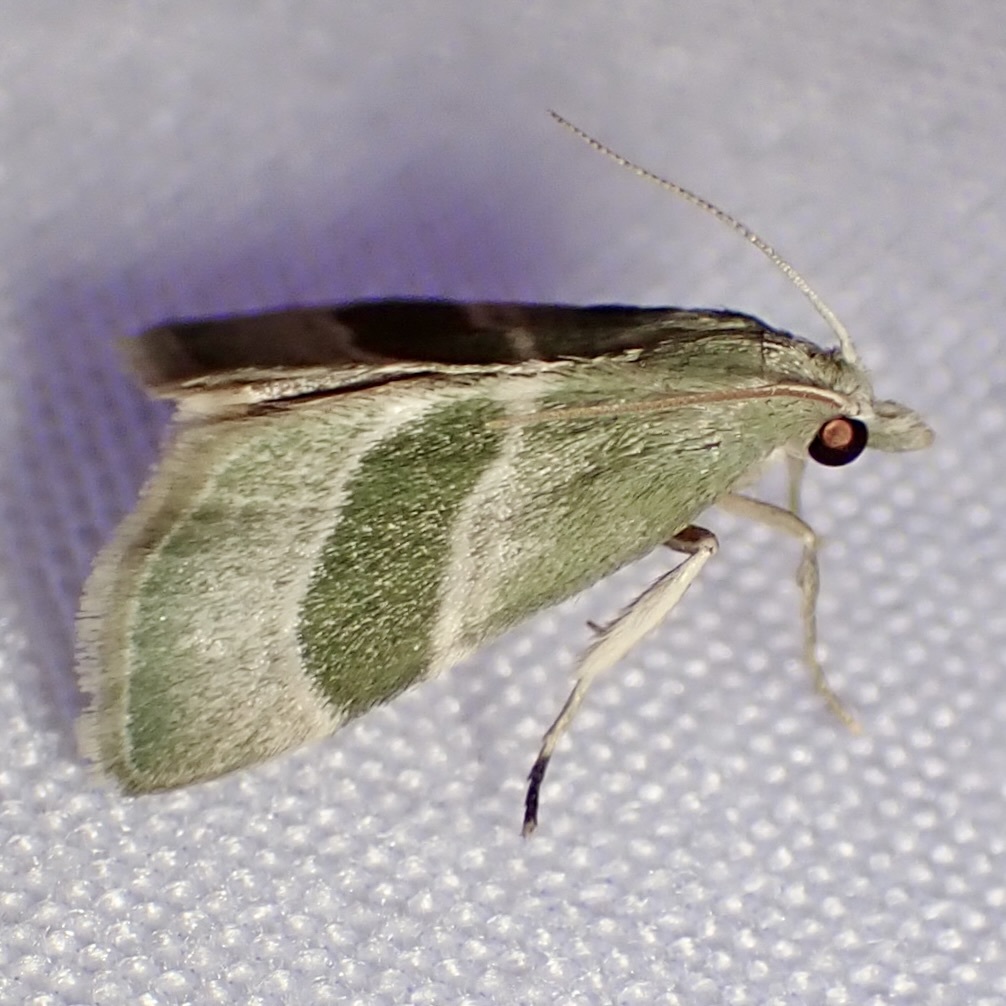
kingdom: Animalia
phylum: Arthropoda
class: Insecta
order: Lepidoptera
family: Pyralidae
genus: Anemosella
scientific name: Anemosella viridalis
